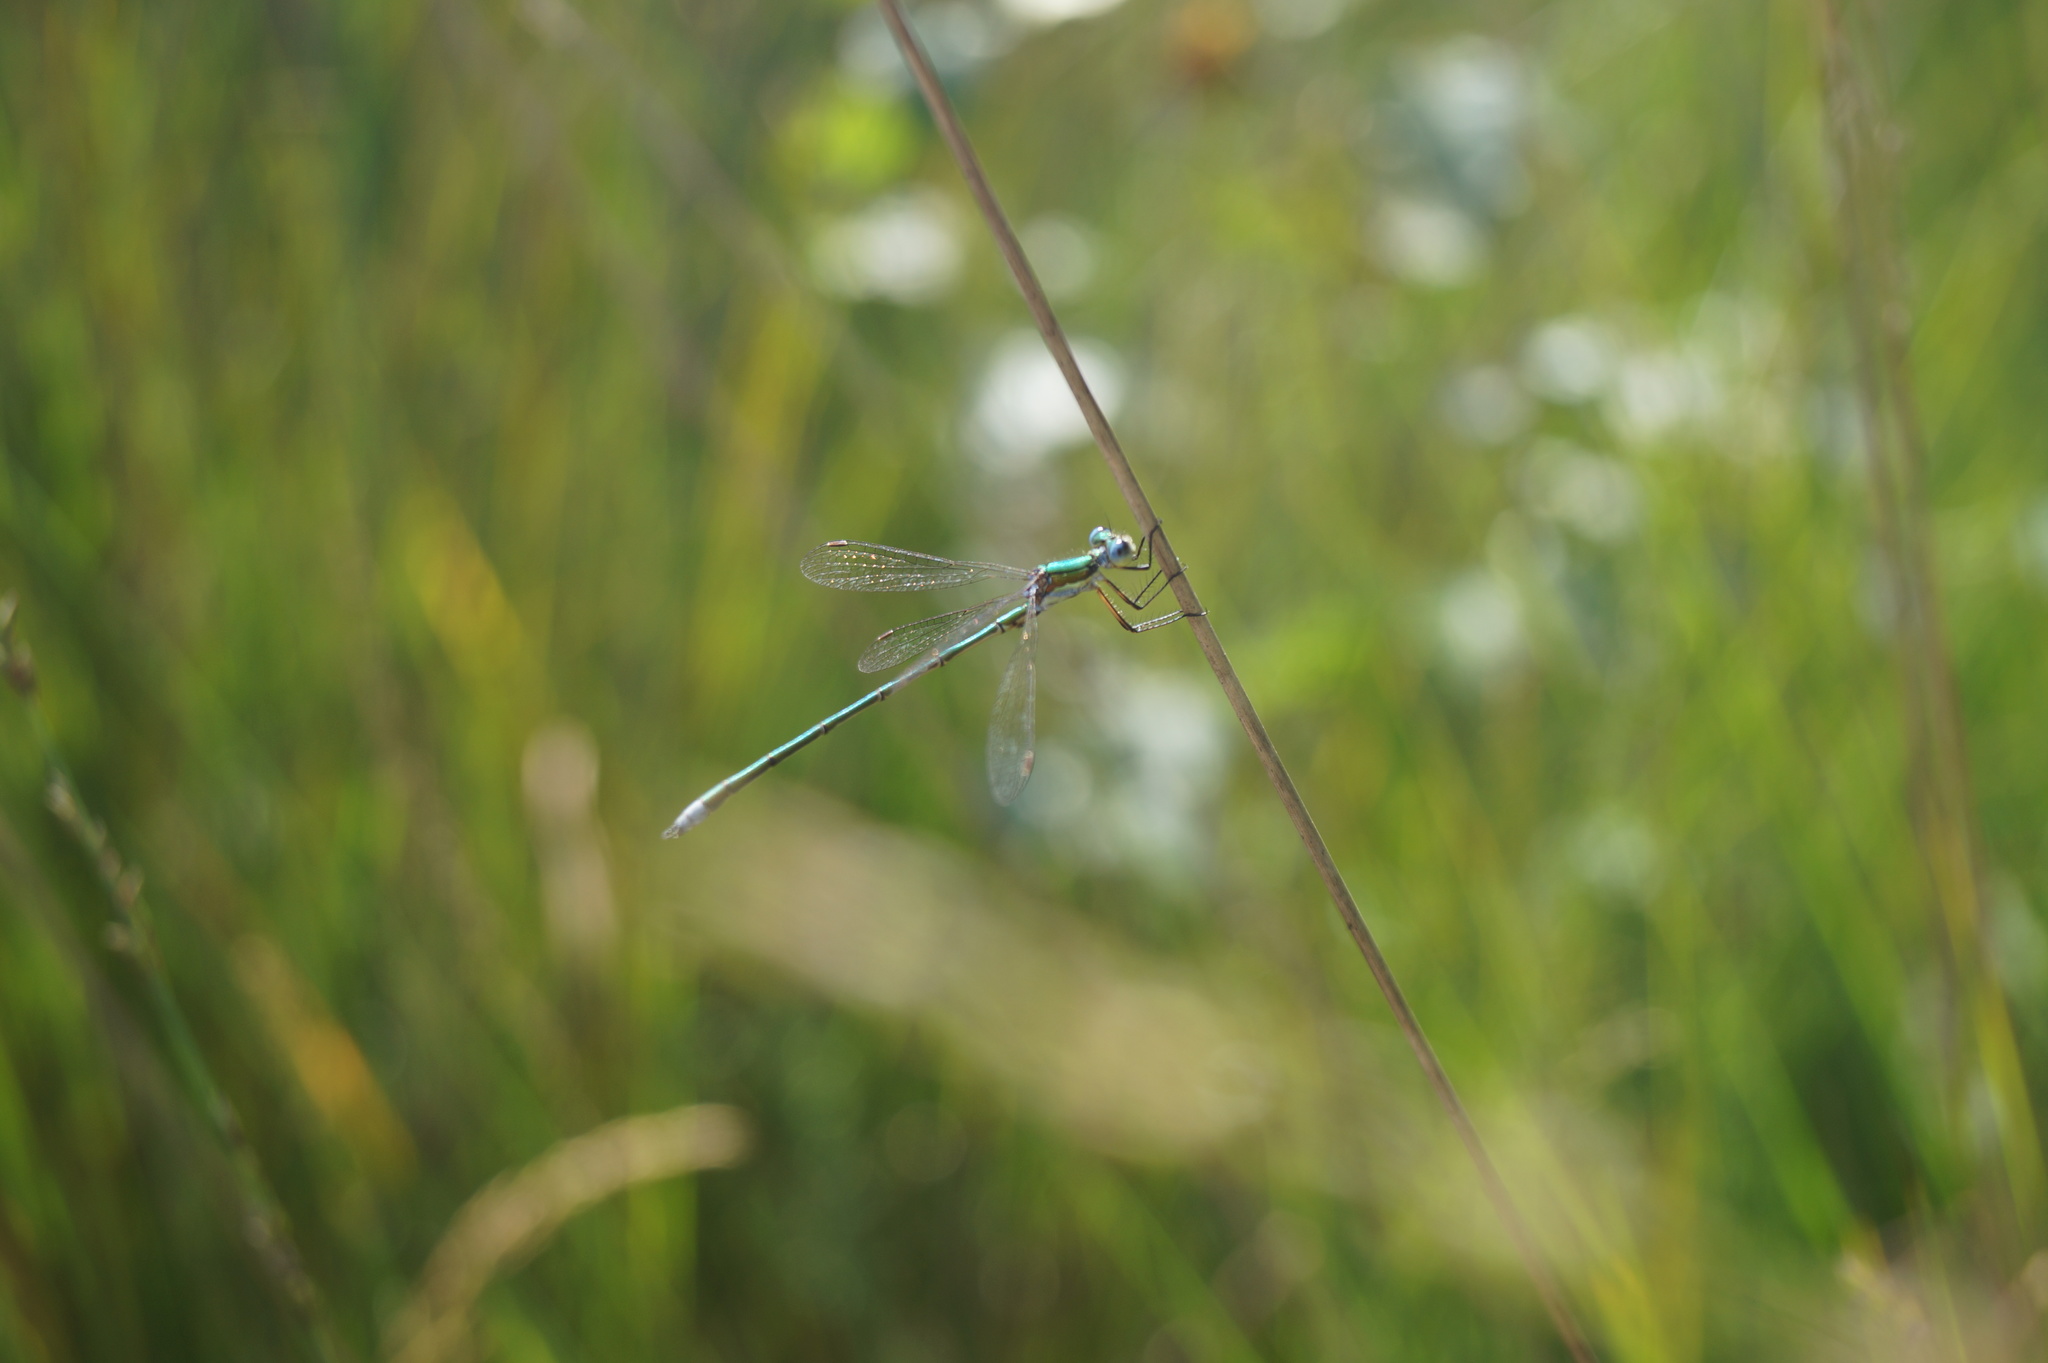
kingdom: Animalia
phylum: Arthropoda
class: Insecta
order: Odonata
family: Lestidae
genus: Lestes
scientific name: Lestes virens
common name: Small emerald spreadwing
